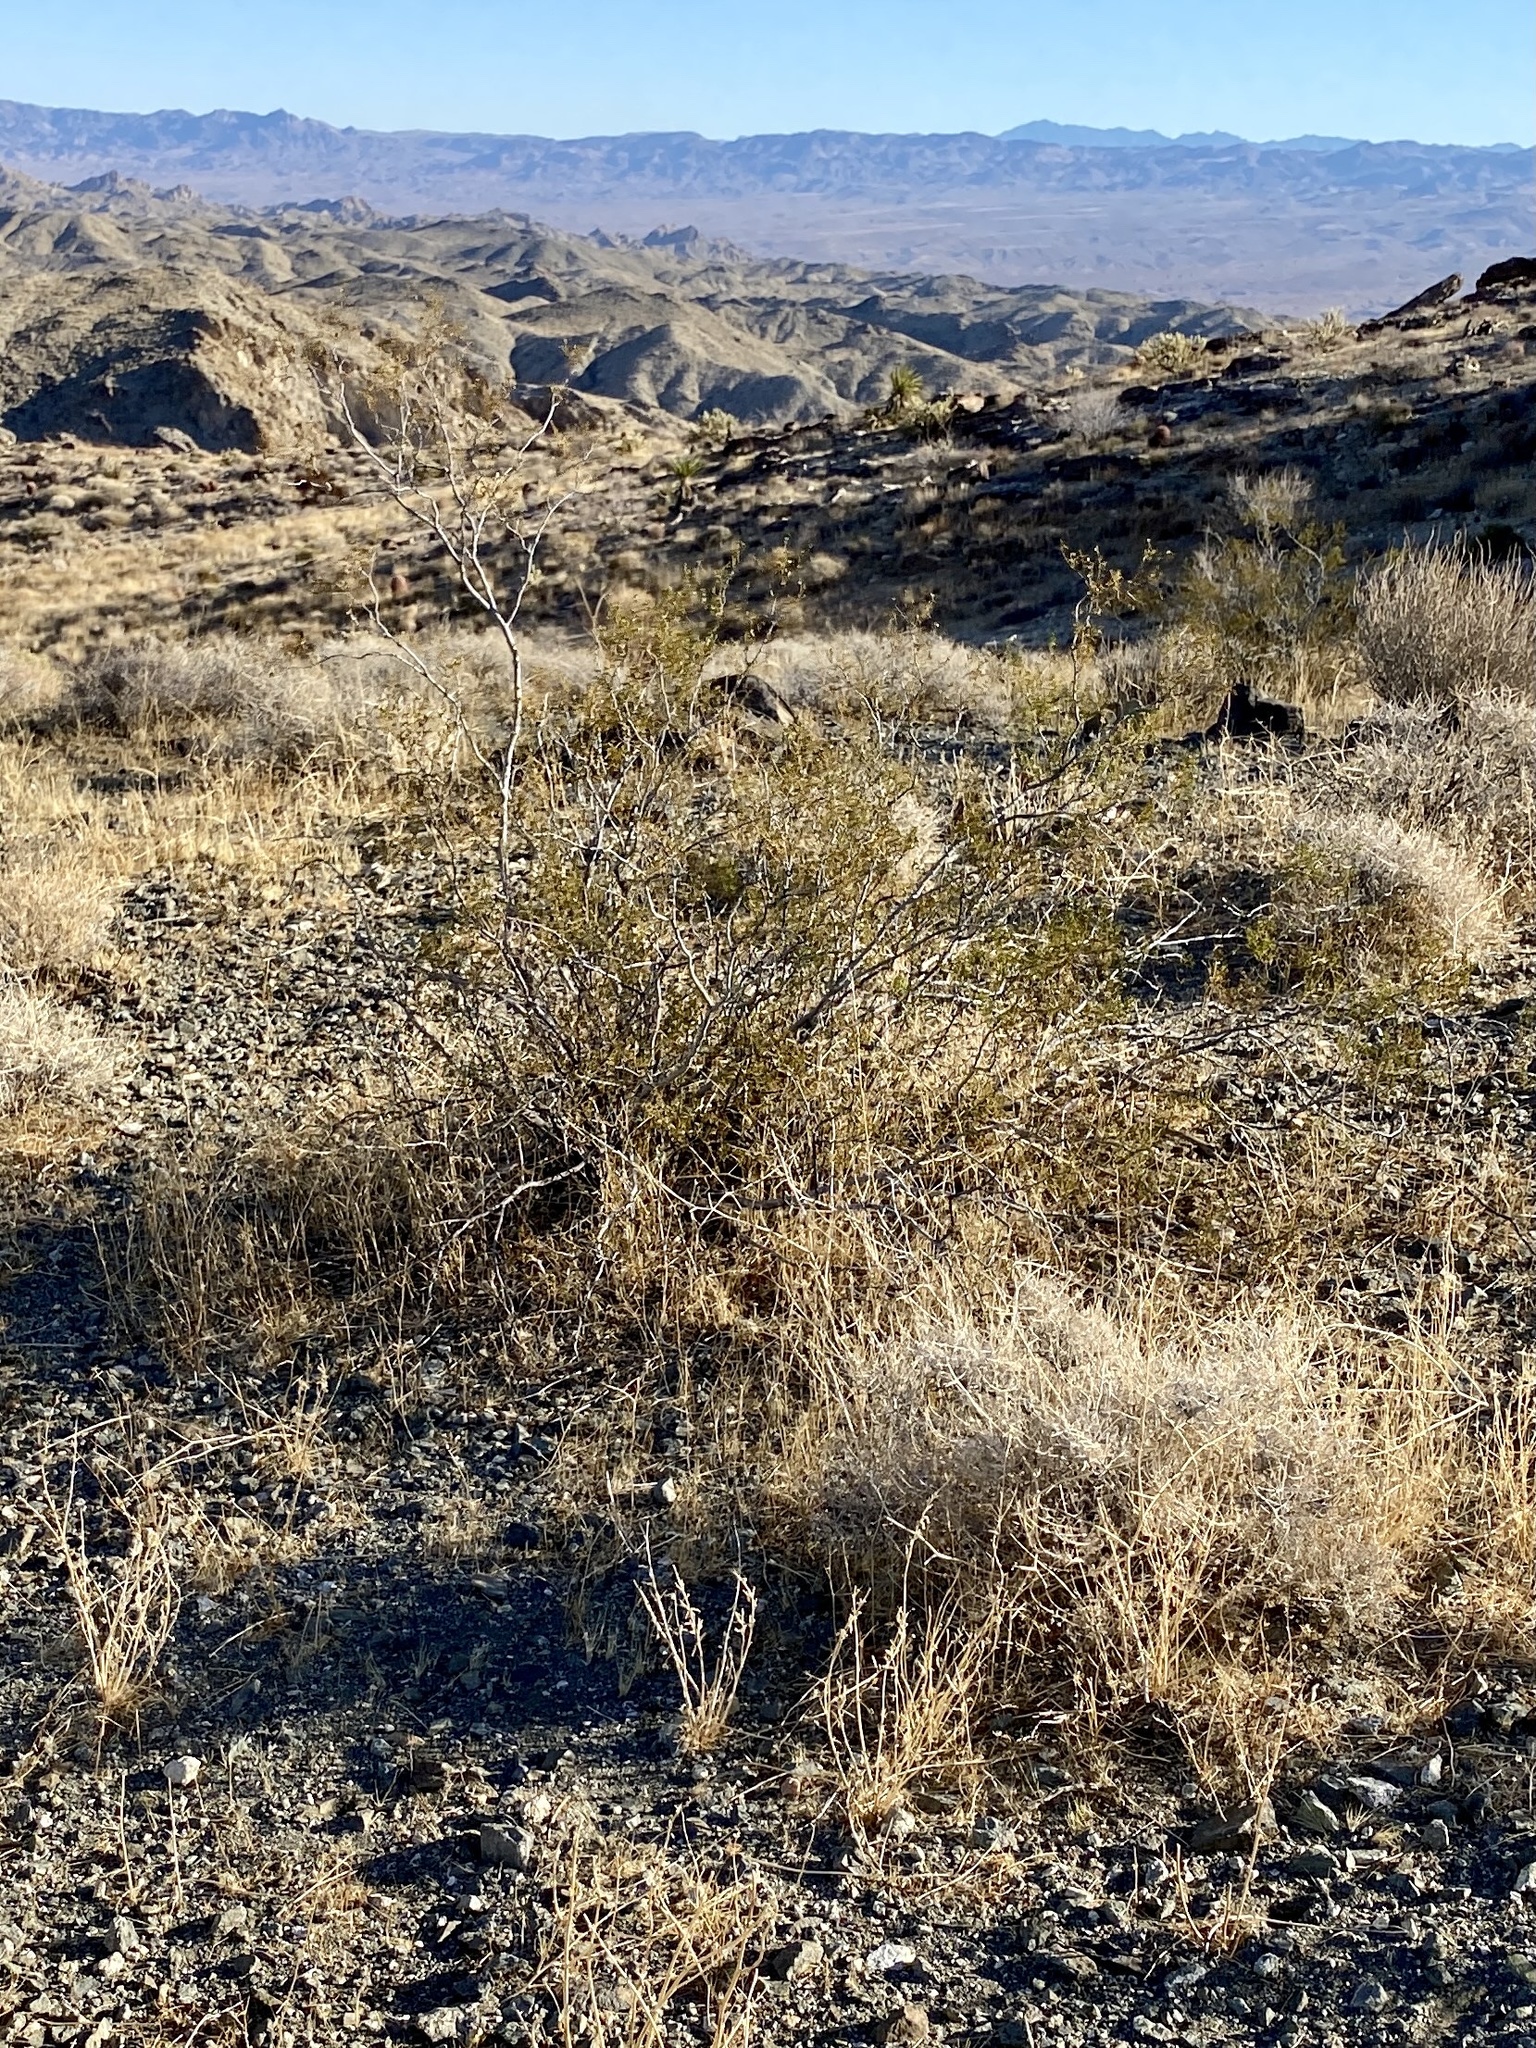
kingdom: Plantae
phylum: Tracheophyta
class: Magnoliopsida
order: Zygophyllales
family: Zygophyllaceae
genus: Larrea
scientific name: Larrea tridentata
